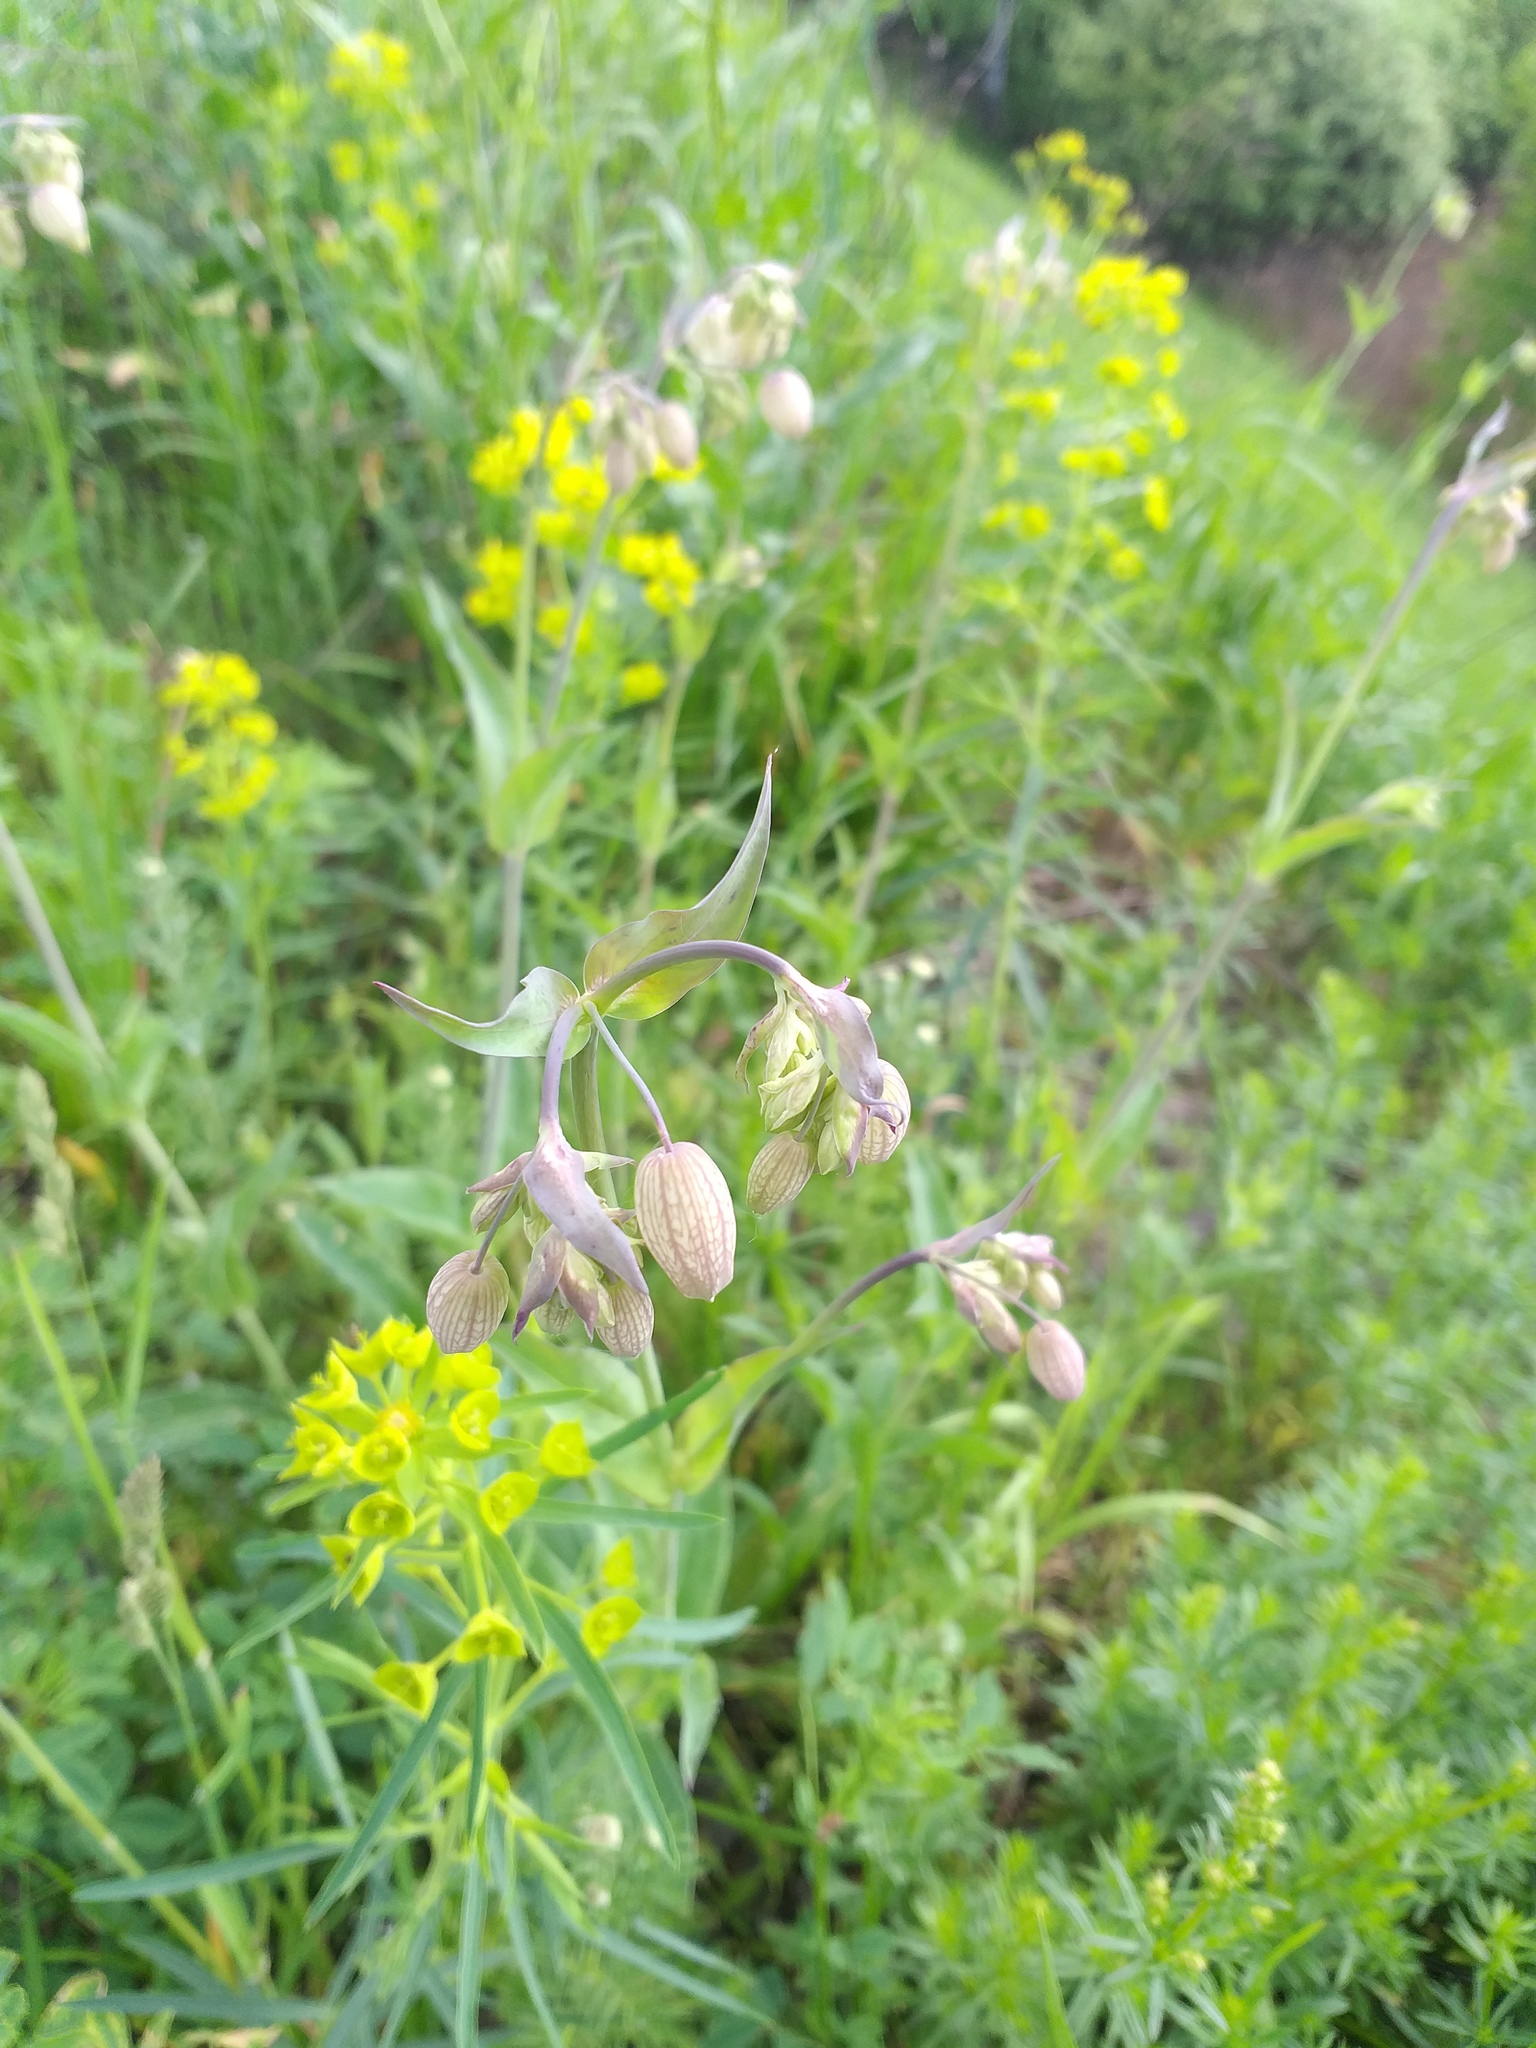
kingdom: Plantae
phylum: Tracheophyta
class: Magnoliopsida
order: Caryophyllales
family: Caryophyllaceae
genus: Silene
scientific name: Silene vulgaris
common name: Bladder campion
